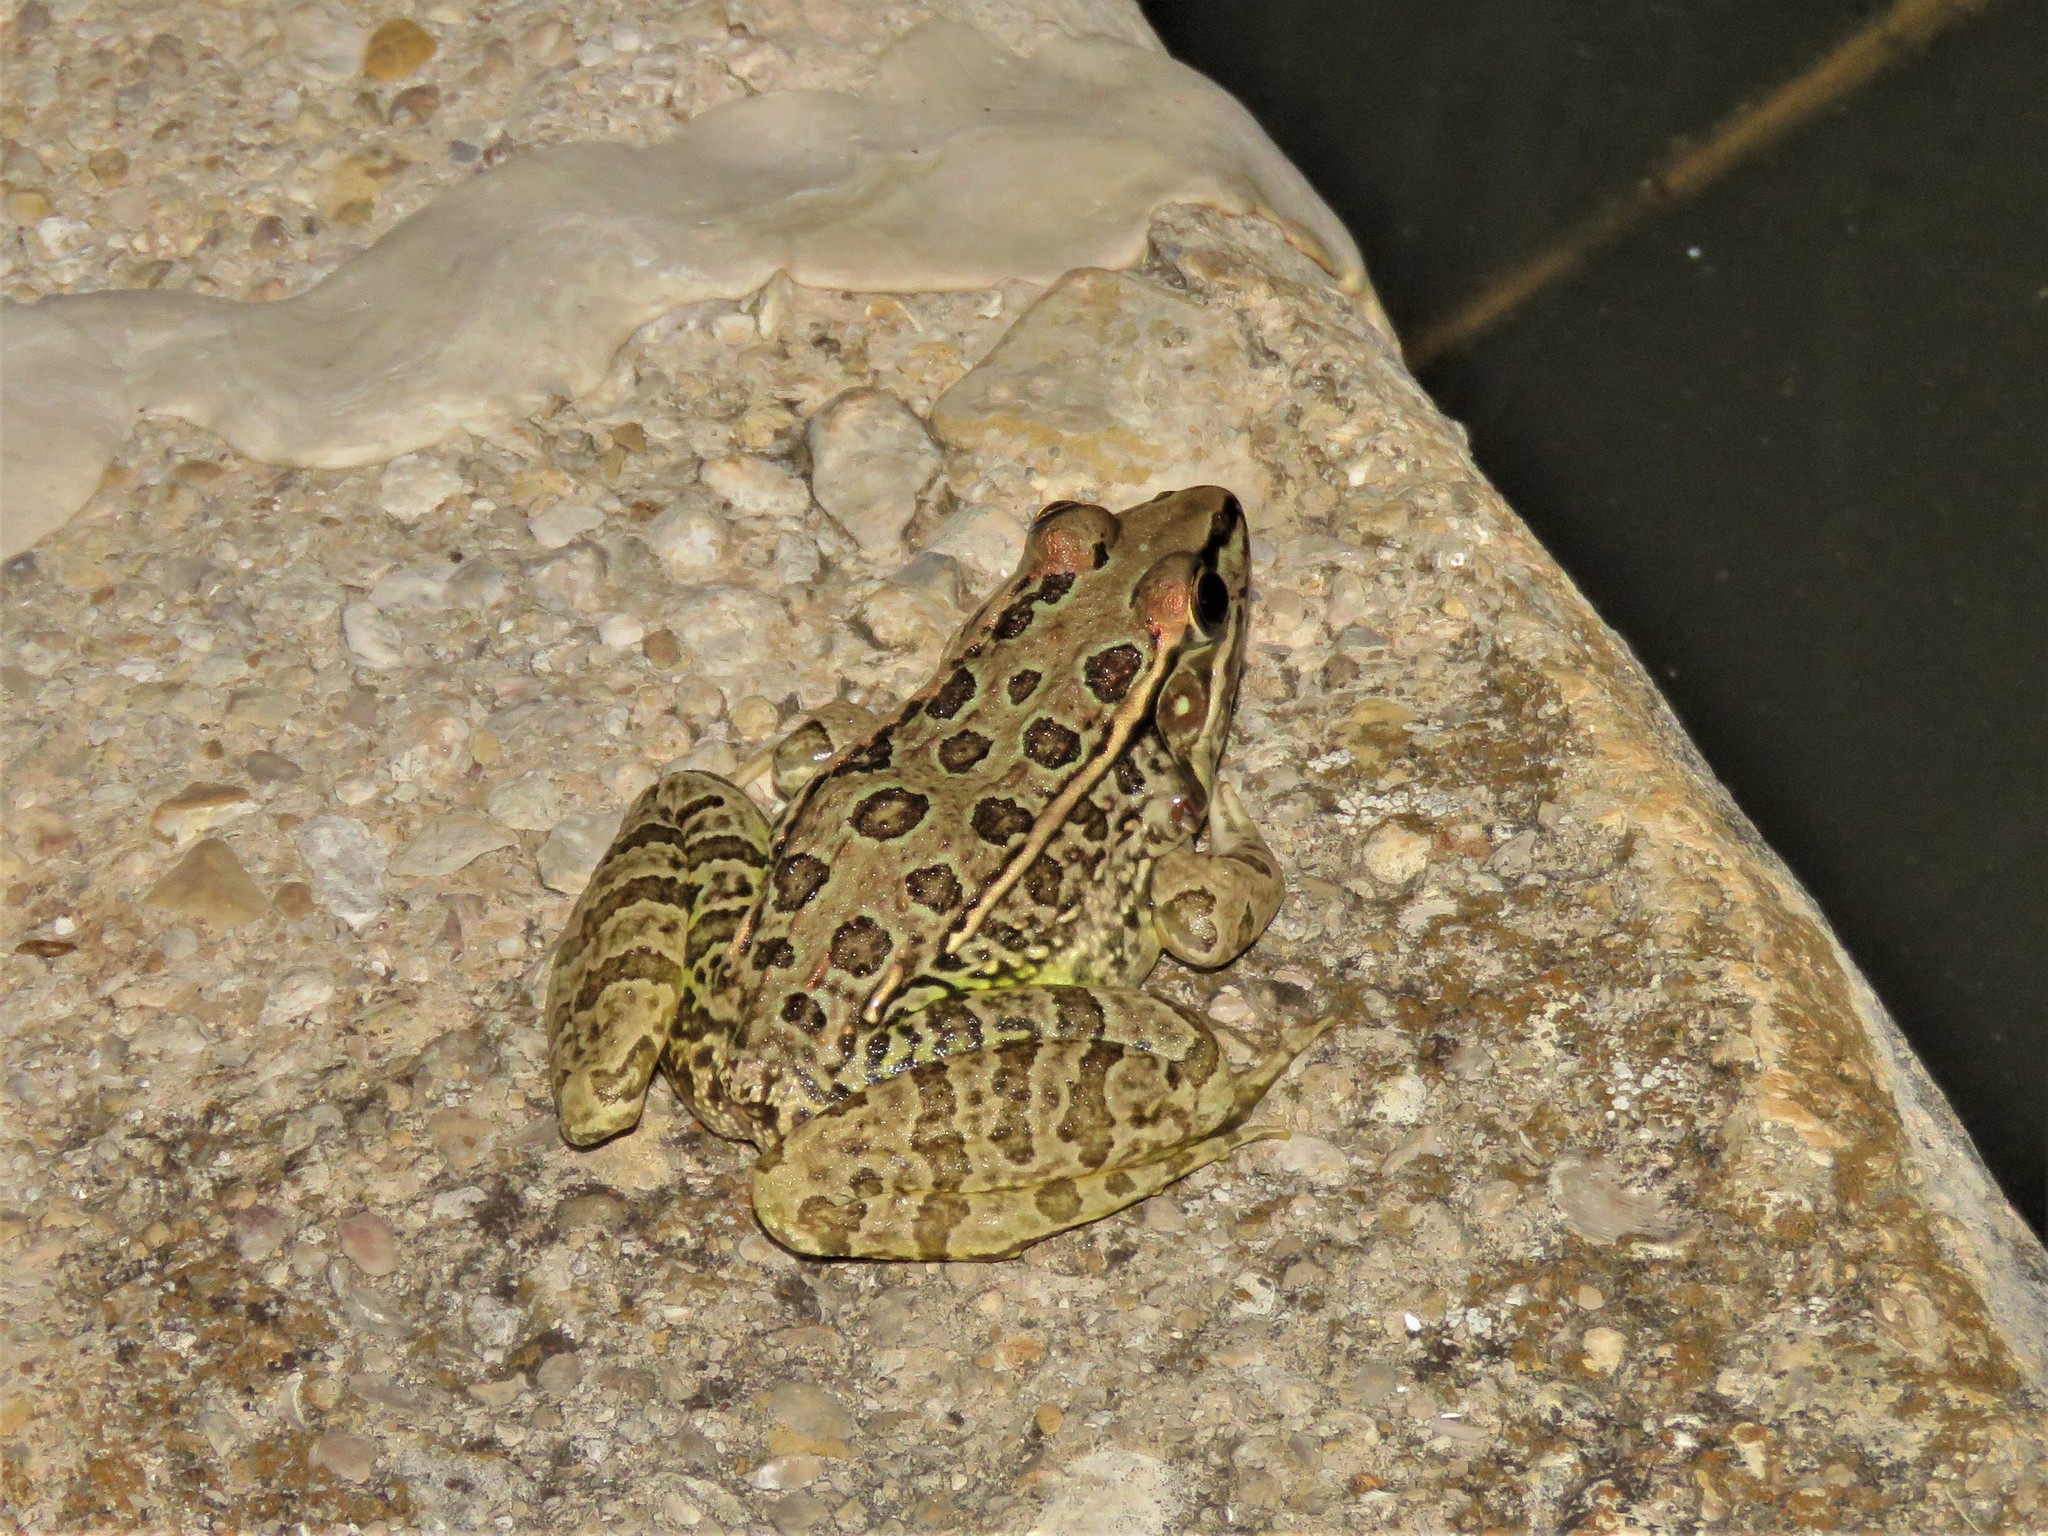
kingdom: Animalia
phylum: Chordata
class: Amphibia
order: Anura
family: Ranidae
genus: Lithobates
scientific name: Lithobates berlandieri
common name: Rio grande leopard frog
